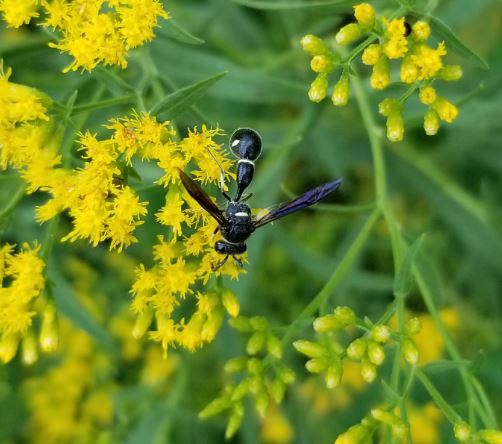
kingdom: Animalia
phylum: Arthropoda
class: Insecta
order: Hymenoptera
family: Vespidae
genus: Eumenes
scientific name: Eumenes fraternus
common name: Fraternal potter wasp
